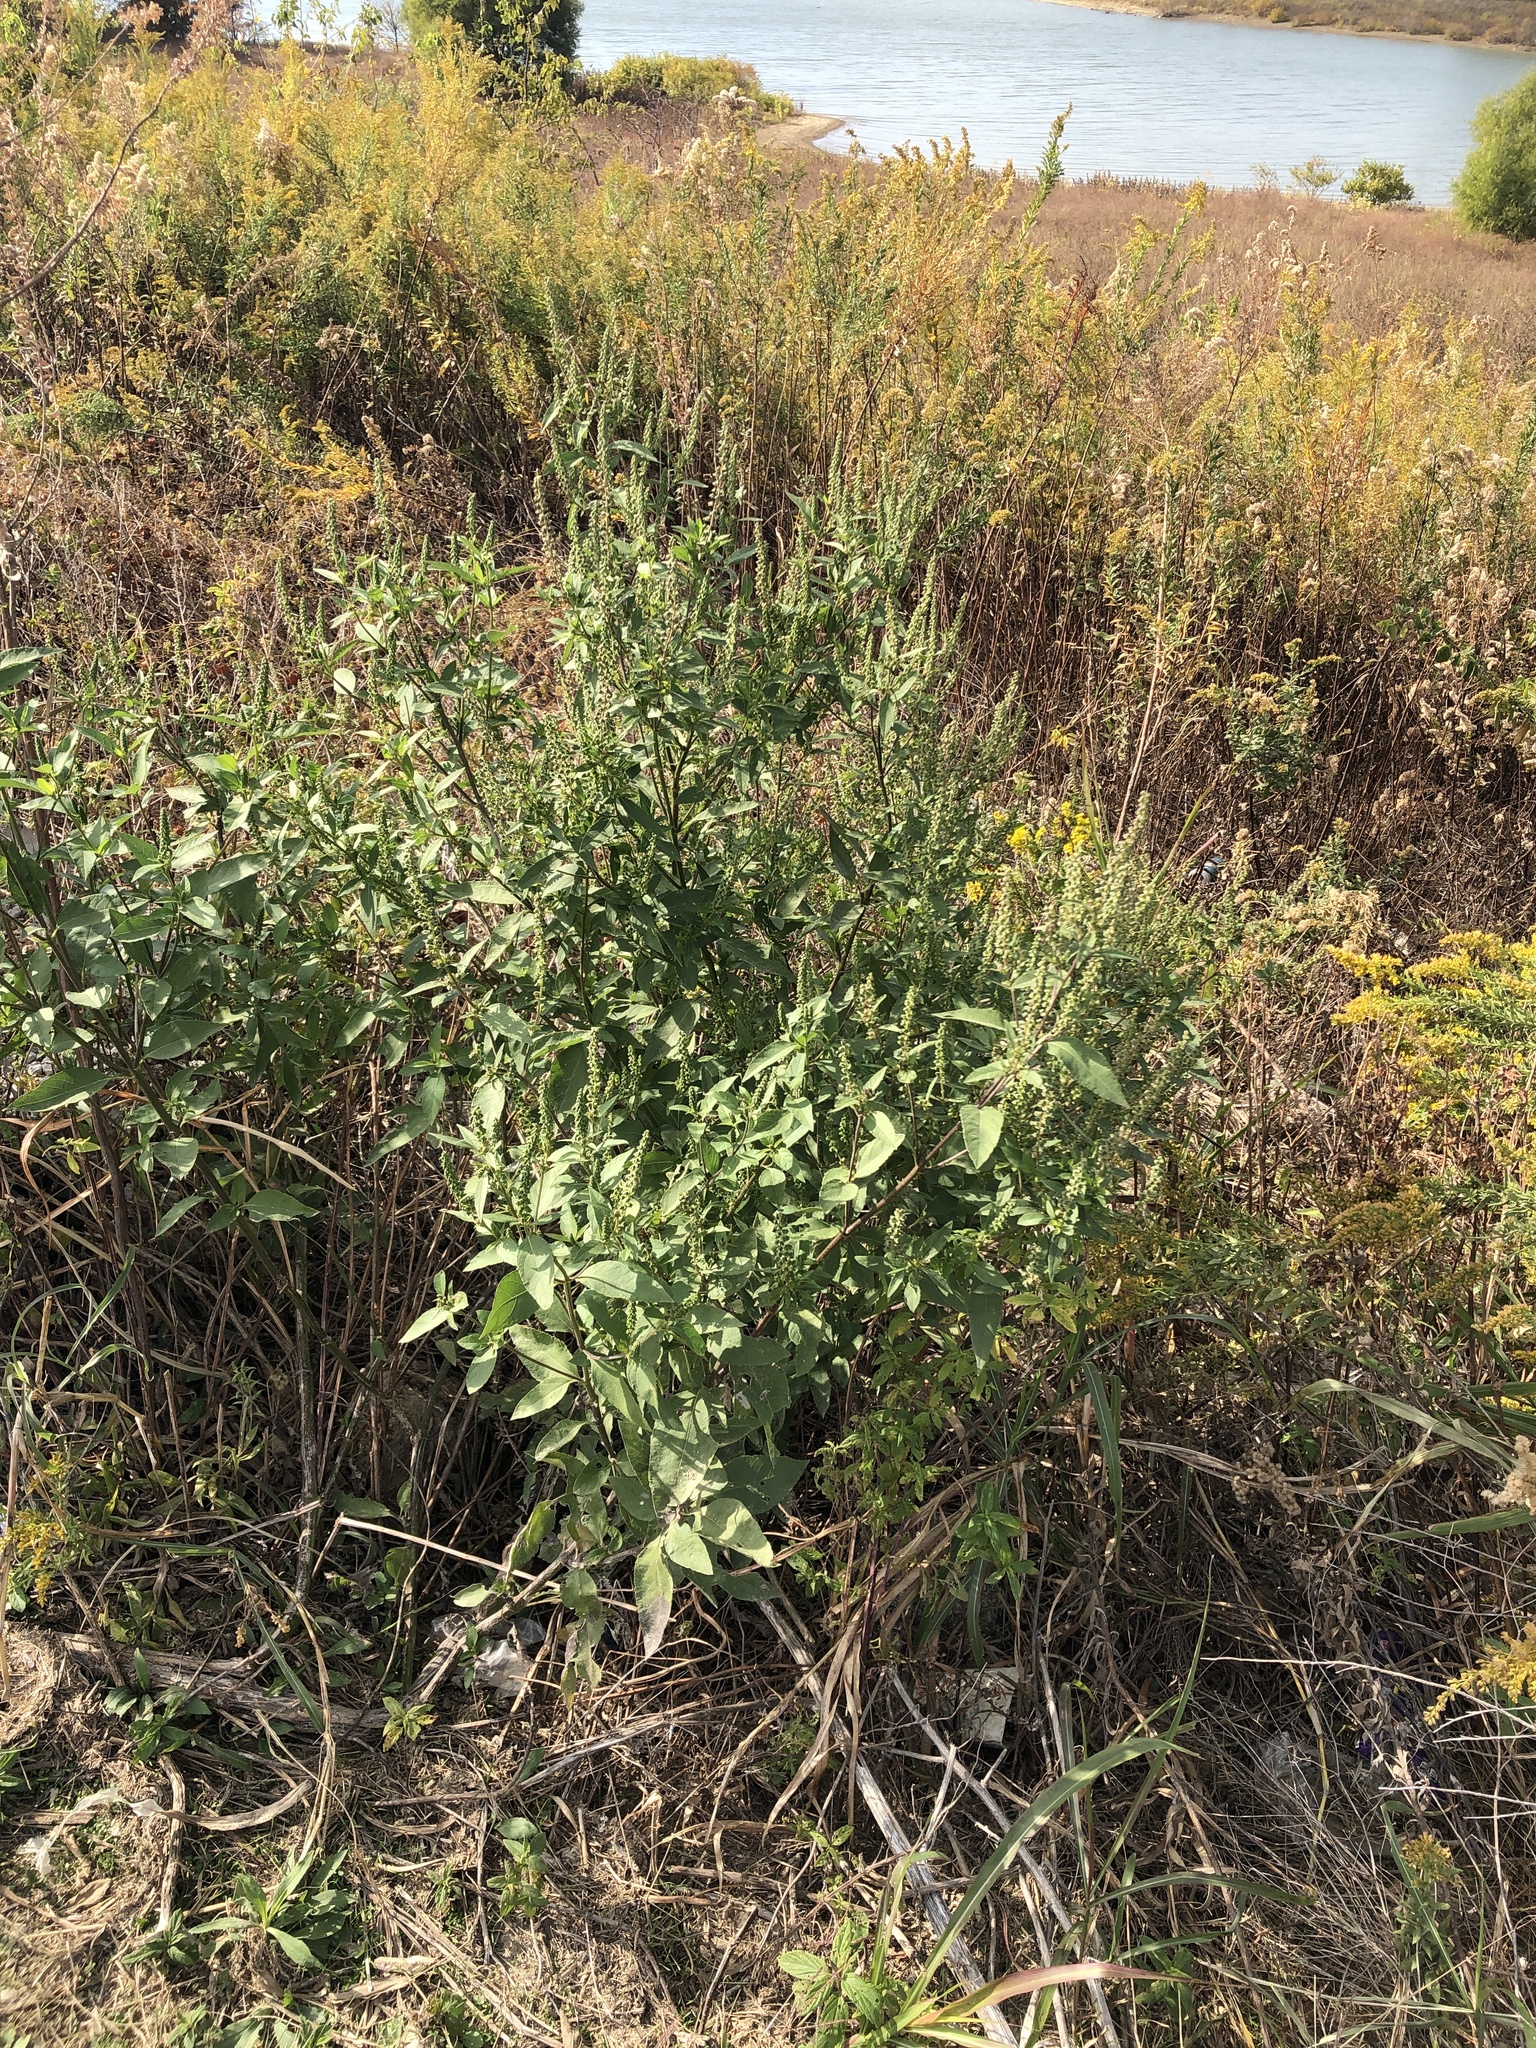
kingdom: Plantae
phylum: Tracheophyta
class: Magnoliopsida
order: Asterales
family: Asteraceae
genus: Ambrosia
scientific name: Ambrosia trifida
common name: Giant ragweed
